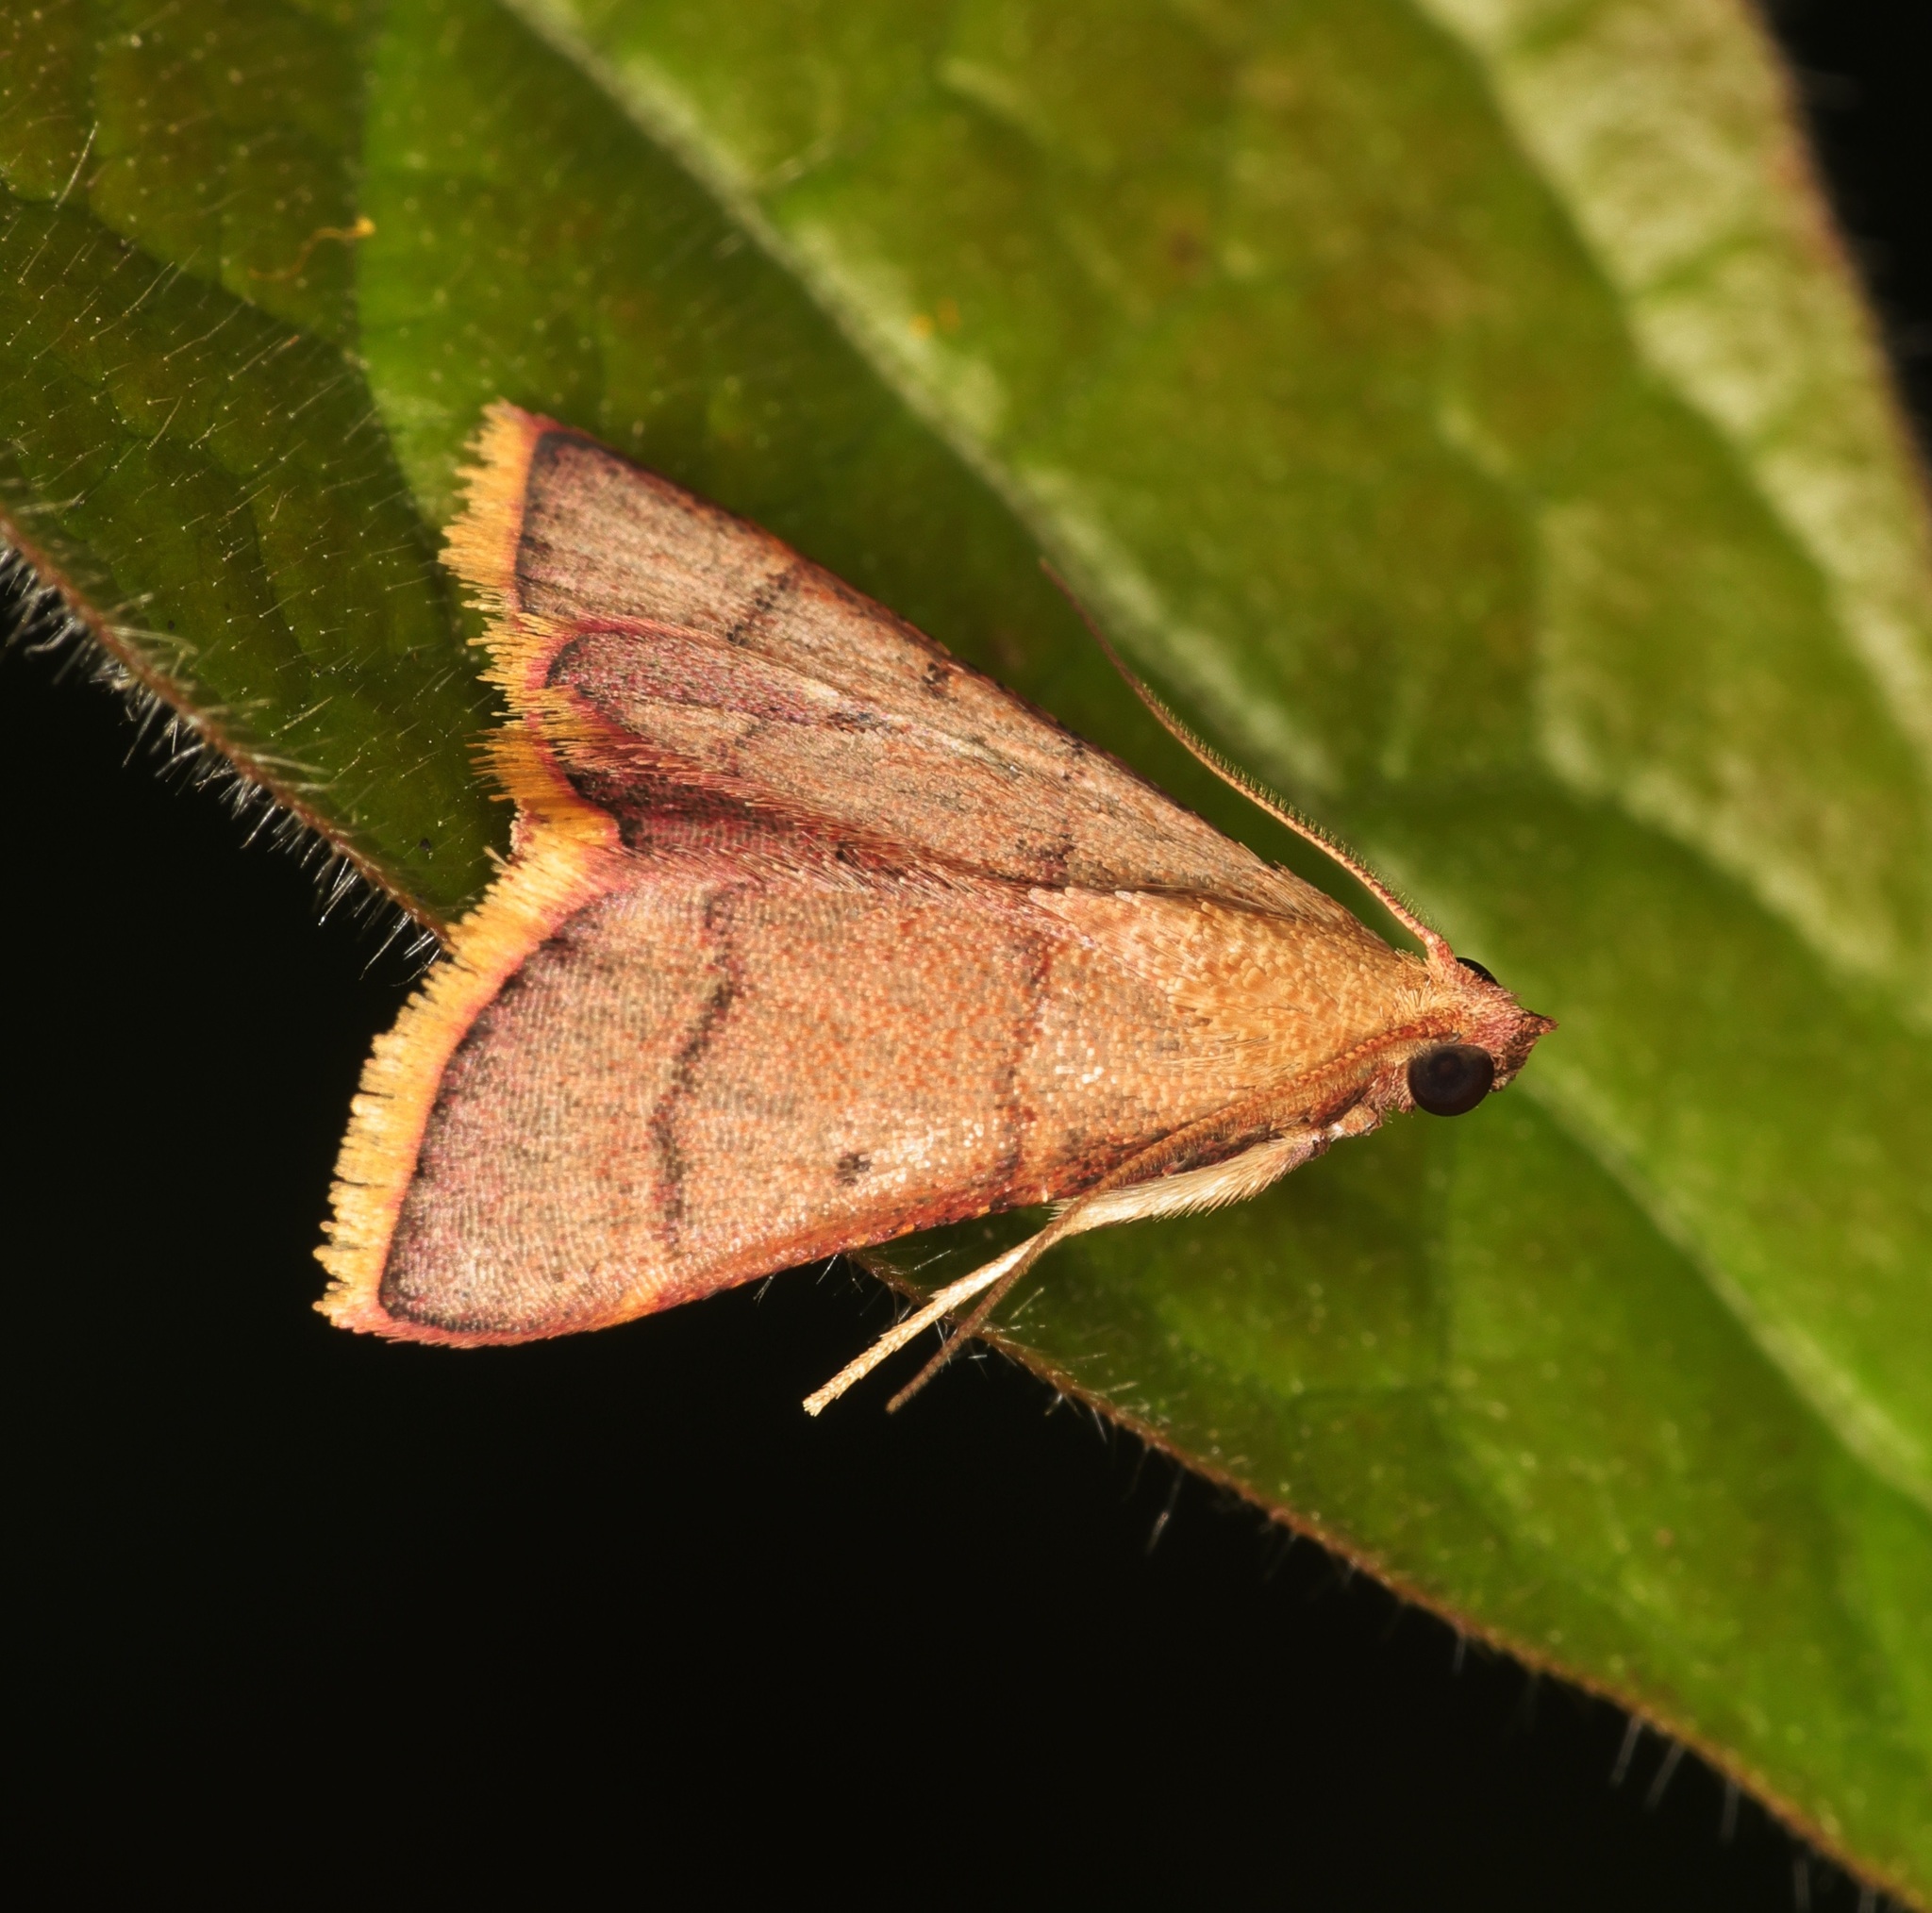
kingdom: Animalia
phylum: Arthropoda
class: Insecta
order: Lepidoptera
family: Pyralidae
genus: Hypsopygia
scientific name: Hypsopygia
